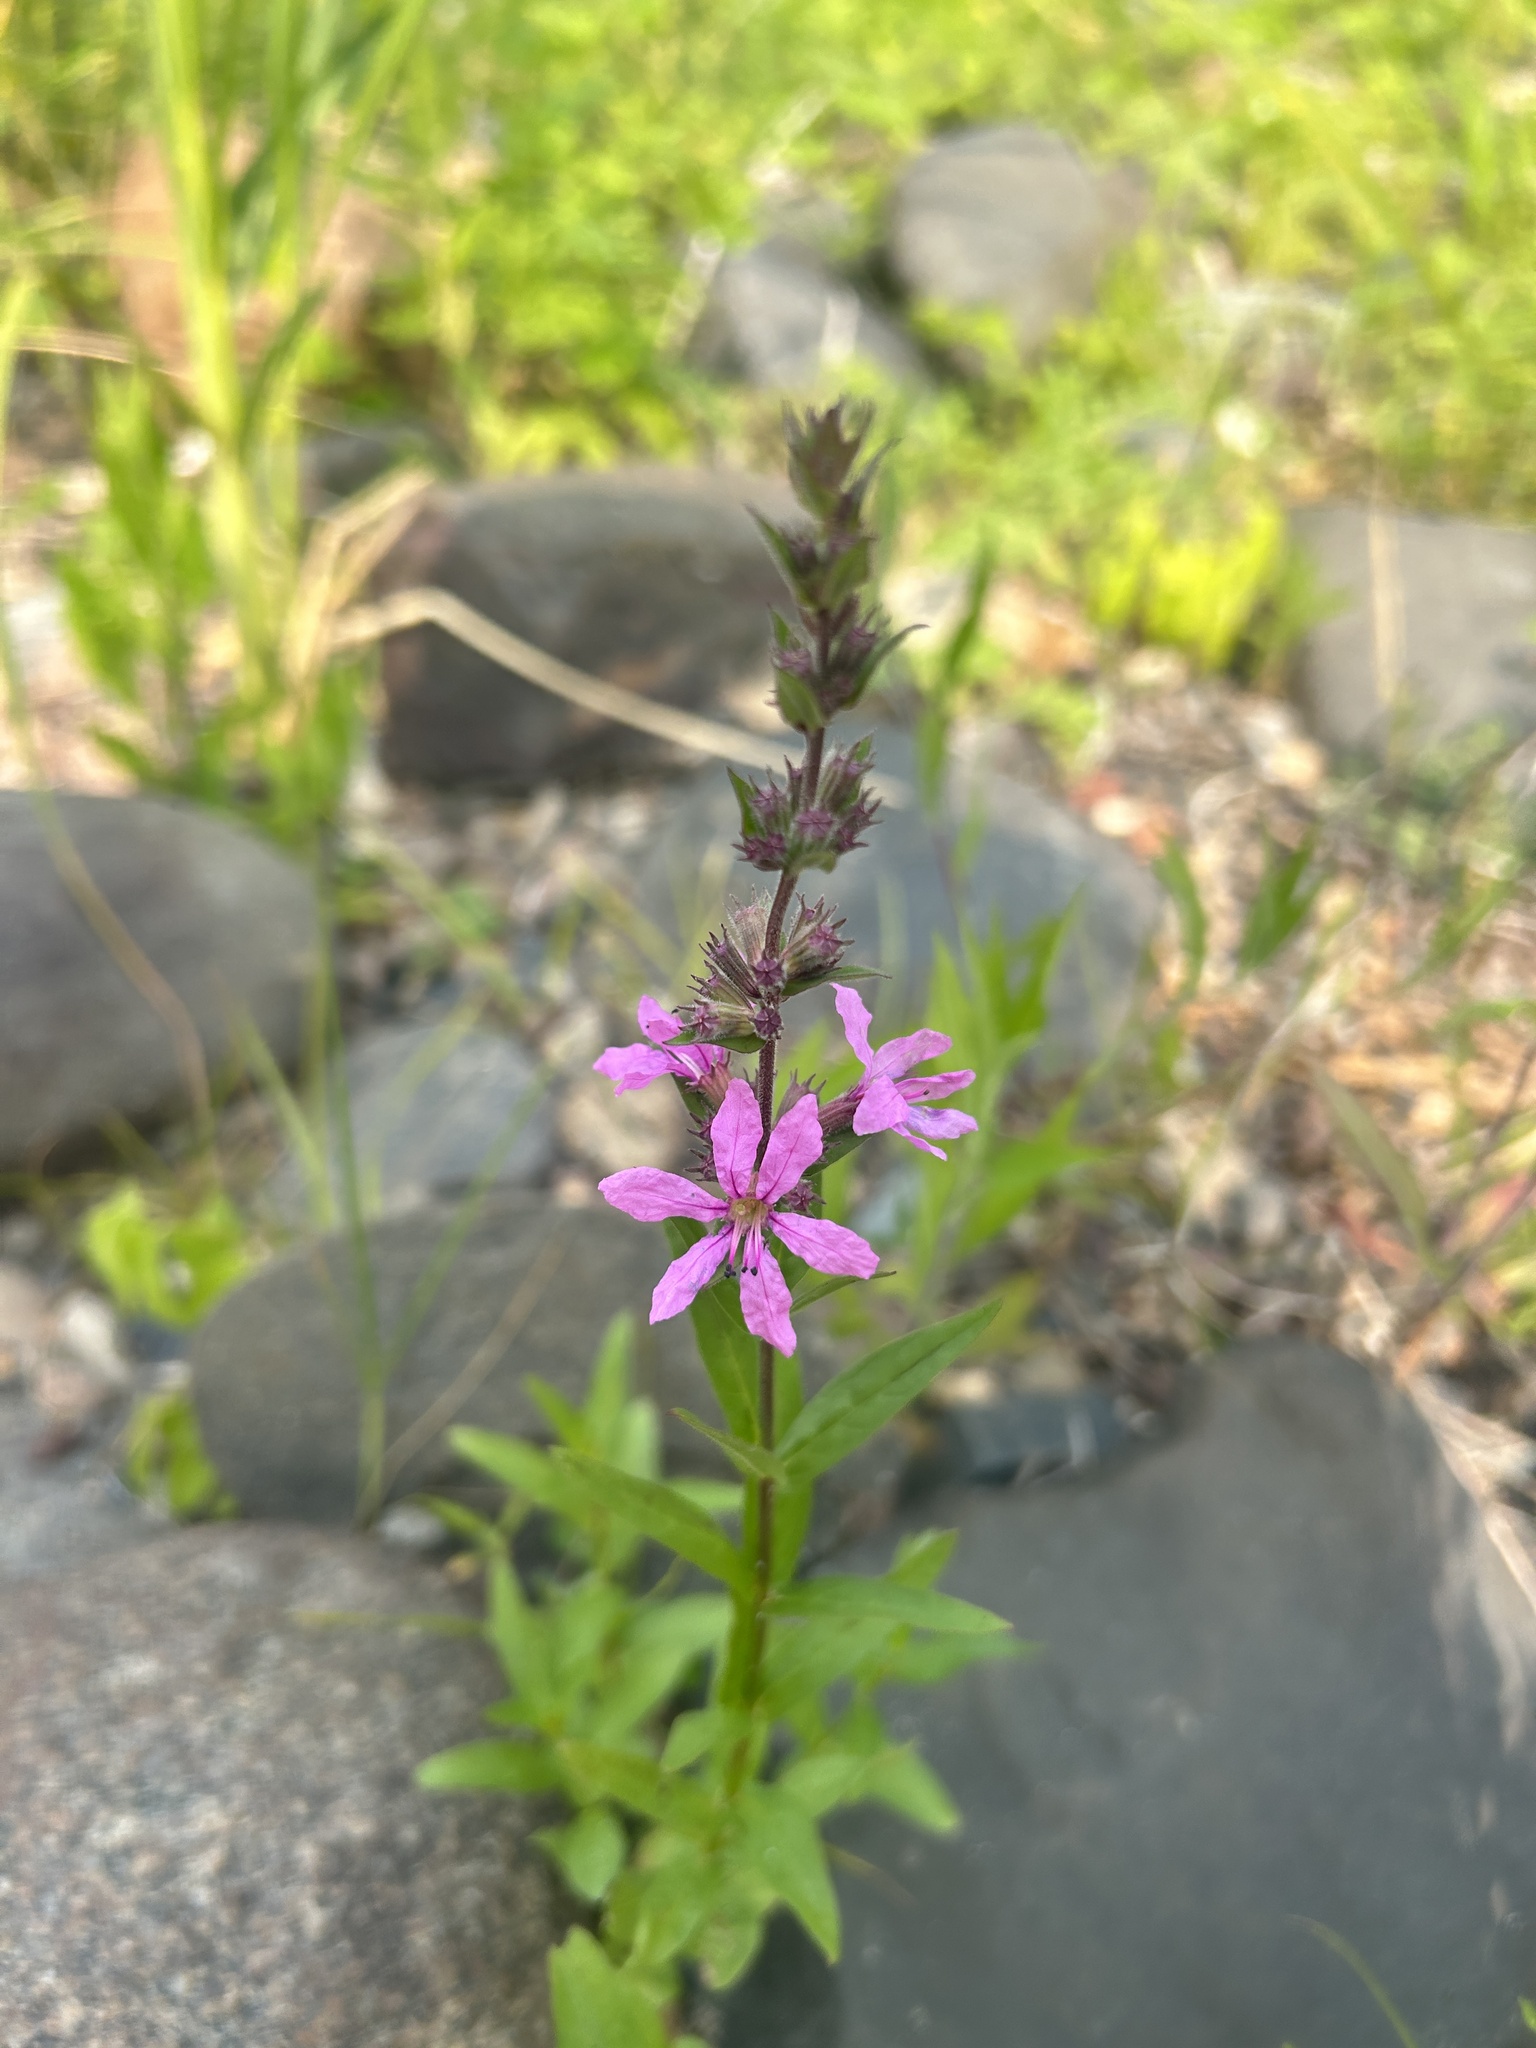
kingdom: Plantae
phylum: Tracheophyta
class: Magnoliopsida
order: Myrtales
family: Lythraceae
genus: Lythrum
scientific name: Lythrum salicaria
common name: Purple loosestrife
